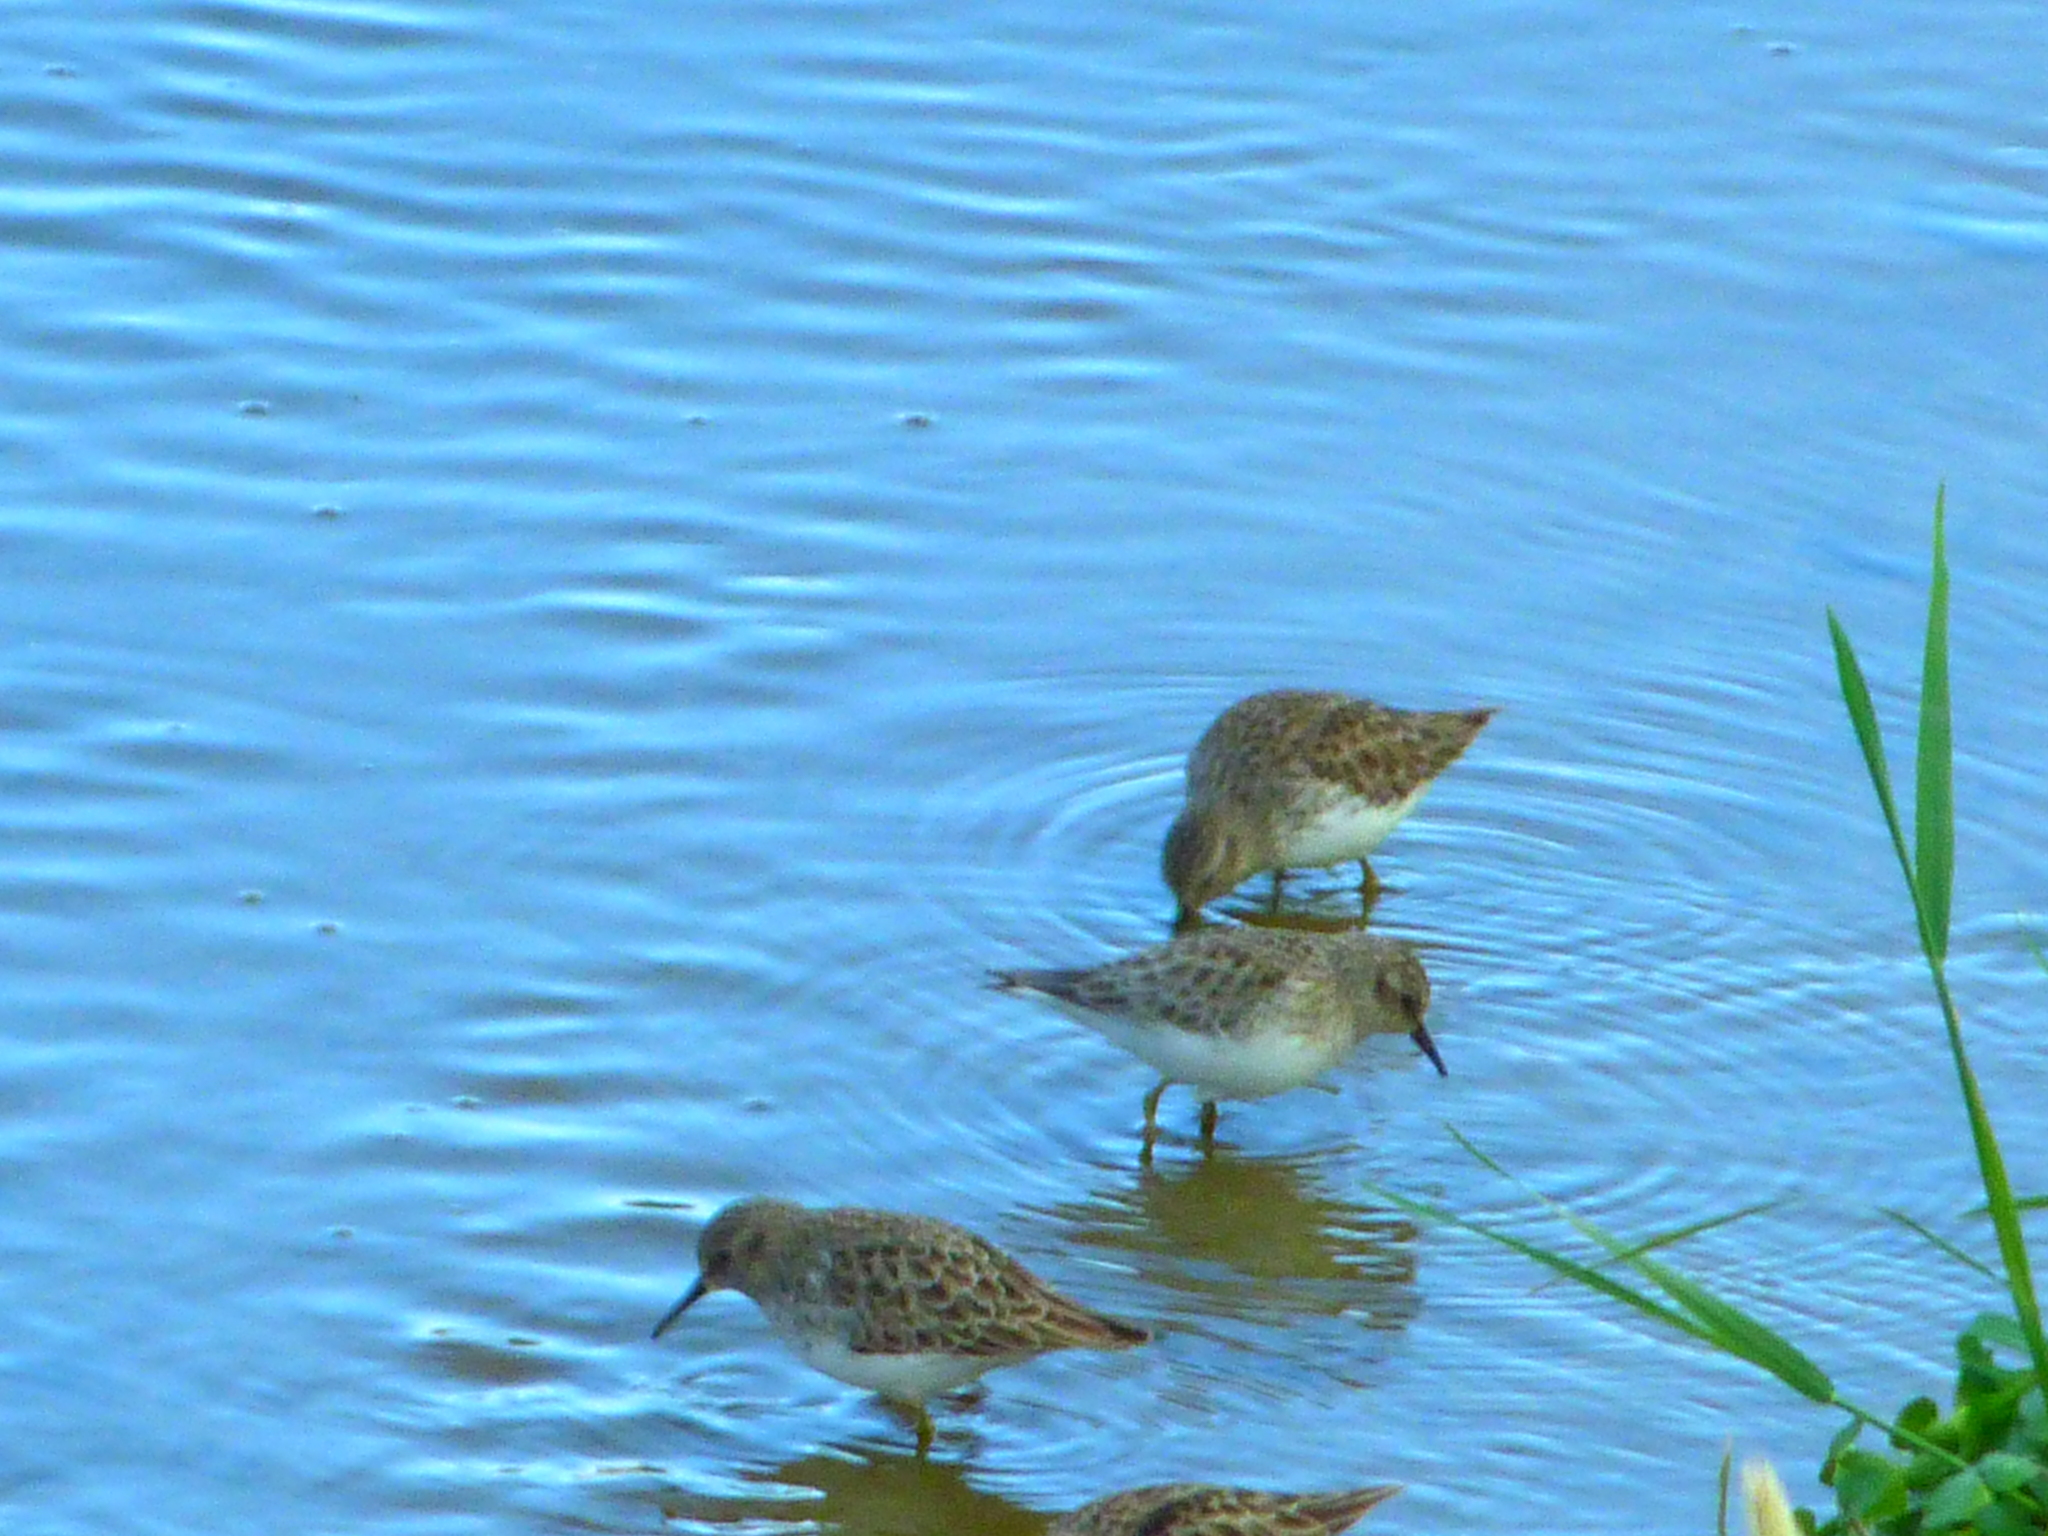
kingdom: Animalia
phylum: Chordata
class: Aves
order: Charadriiformes
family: Scolopacidae
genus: Calidris
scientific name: Calidris minutilla
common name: Least sandpiper
